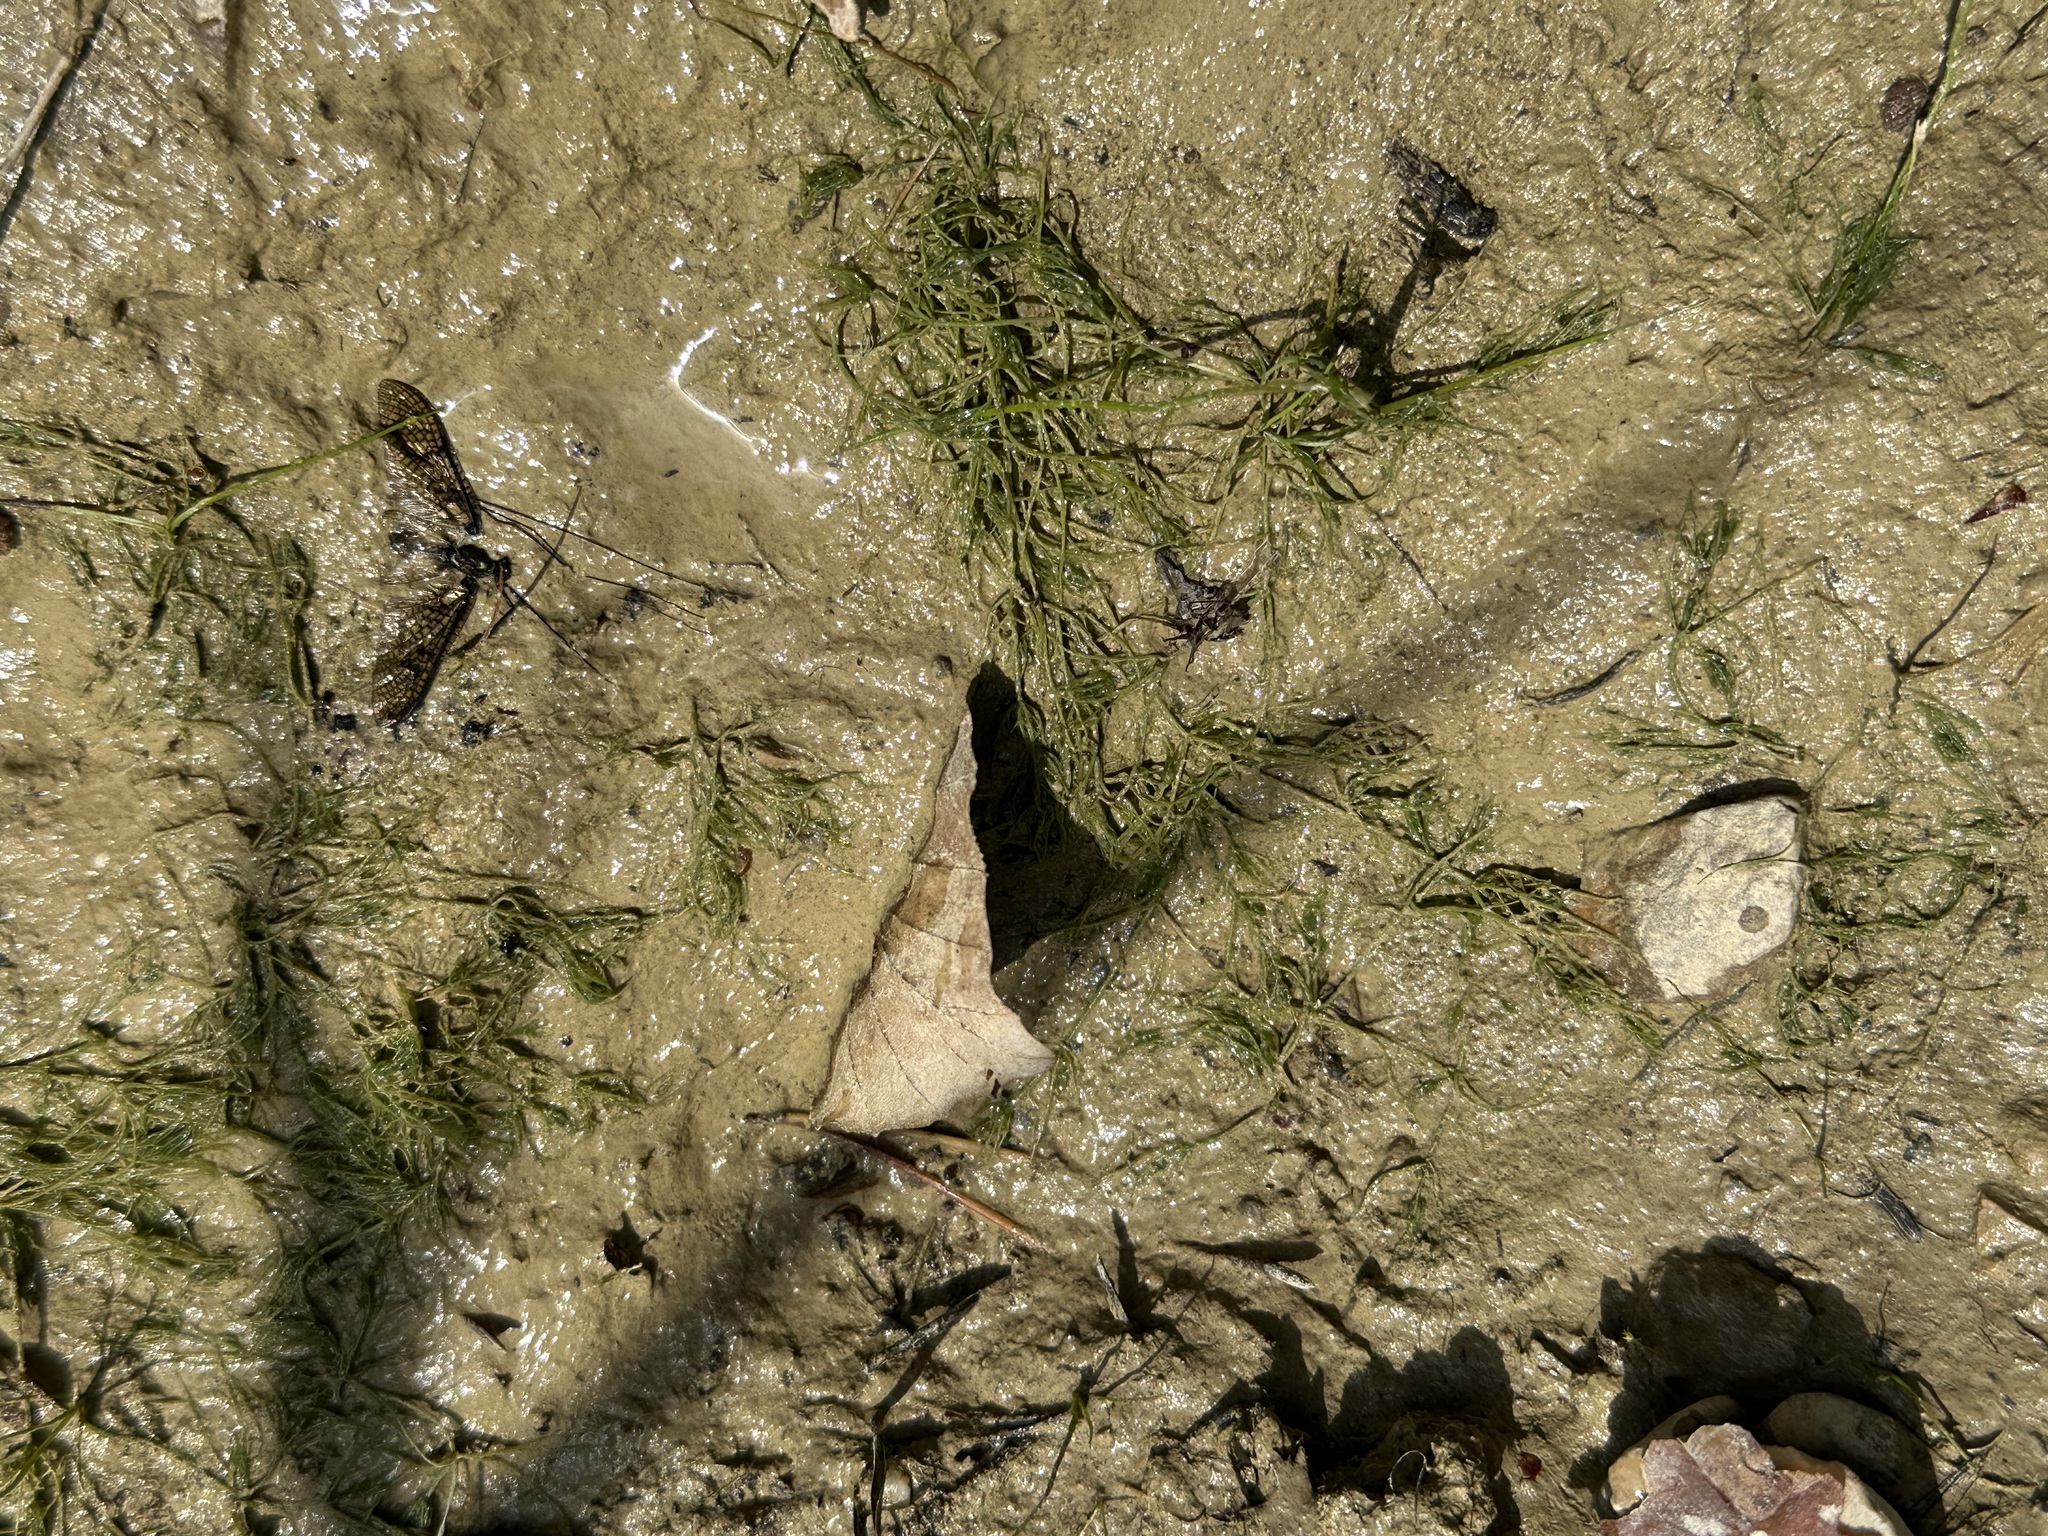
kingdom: Plantae
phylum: Charophyta
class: Charophyceae
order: Charales
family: Characeae
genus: Chara
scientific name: Chara vulgaris
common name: Common stonewort
